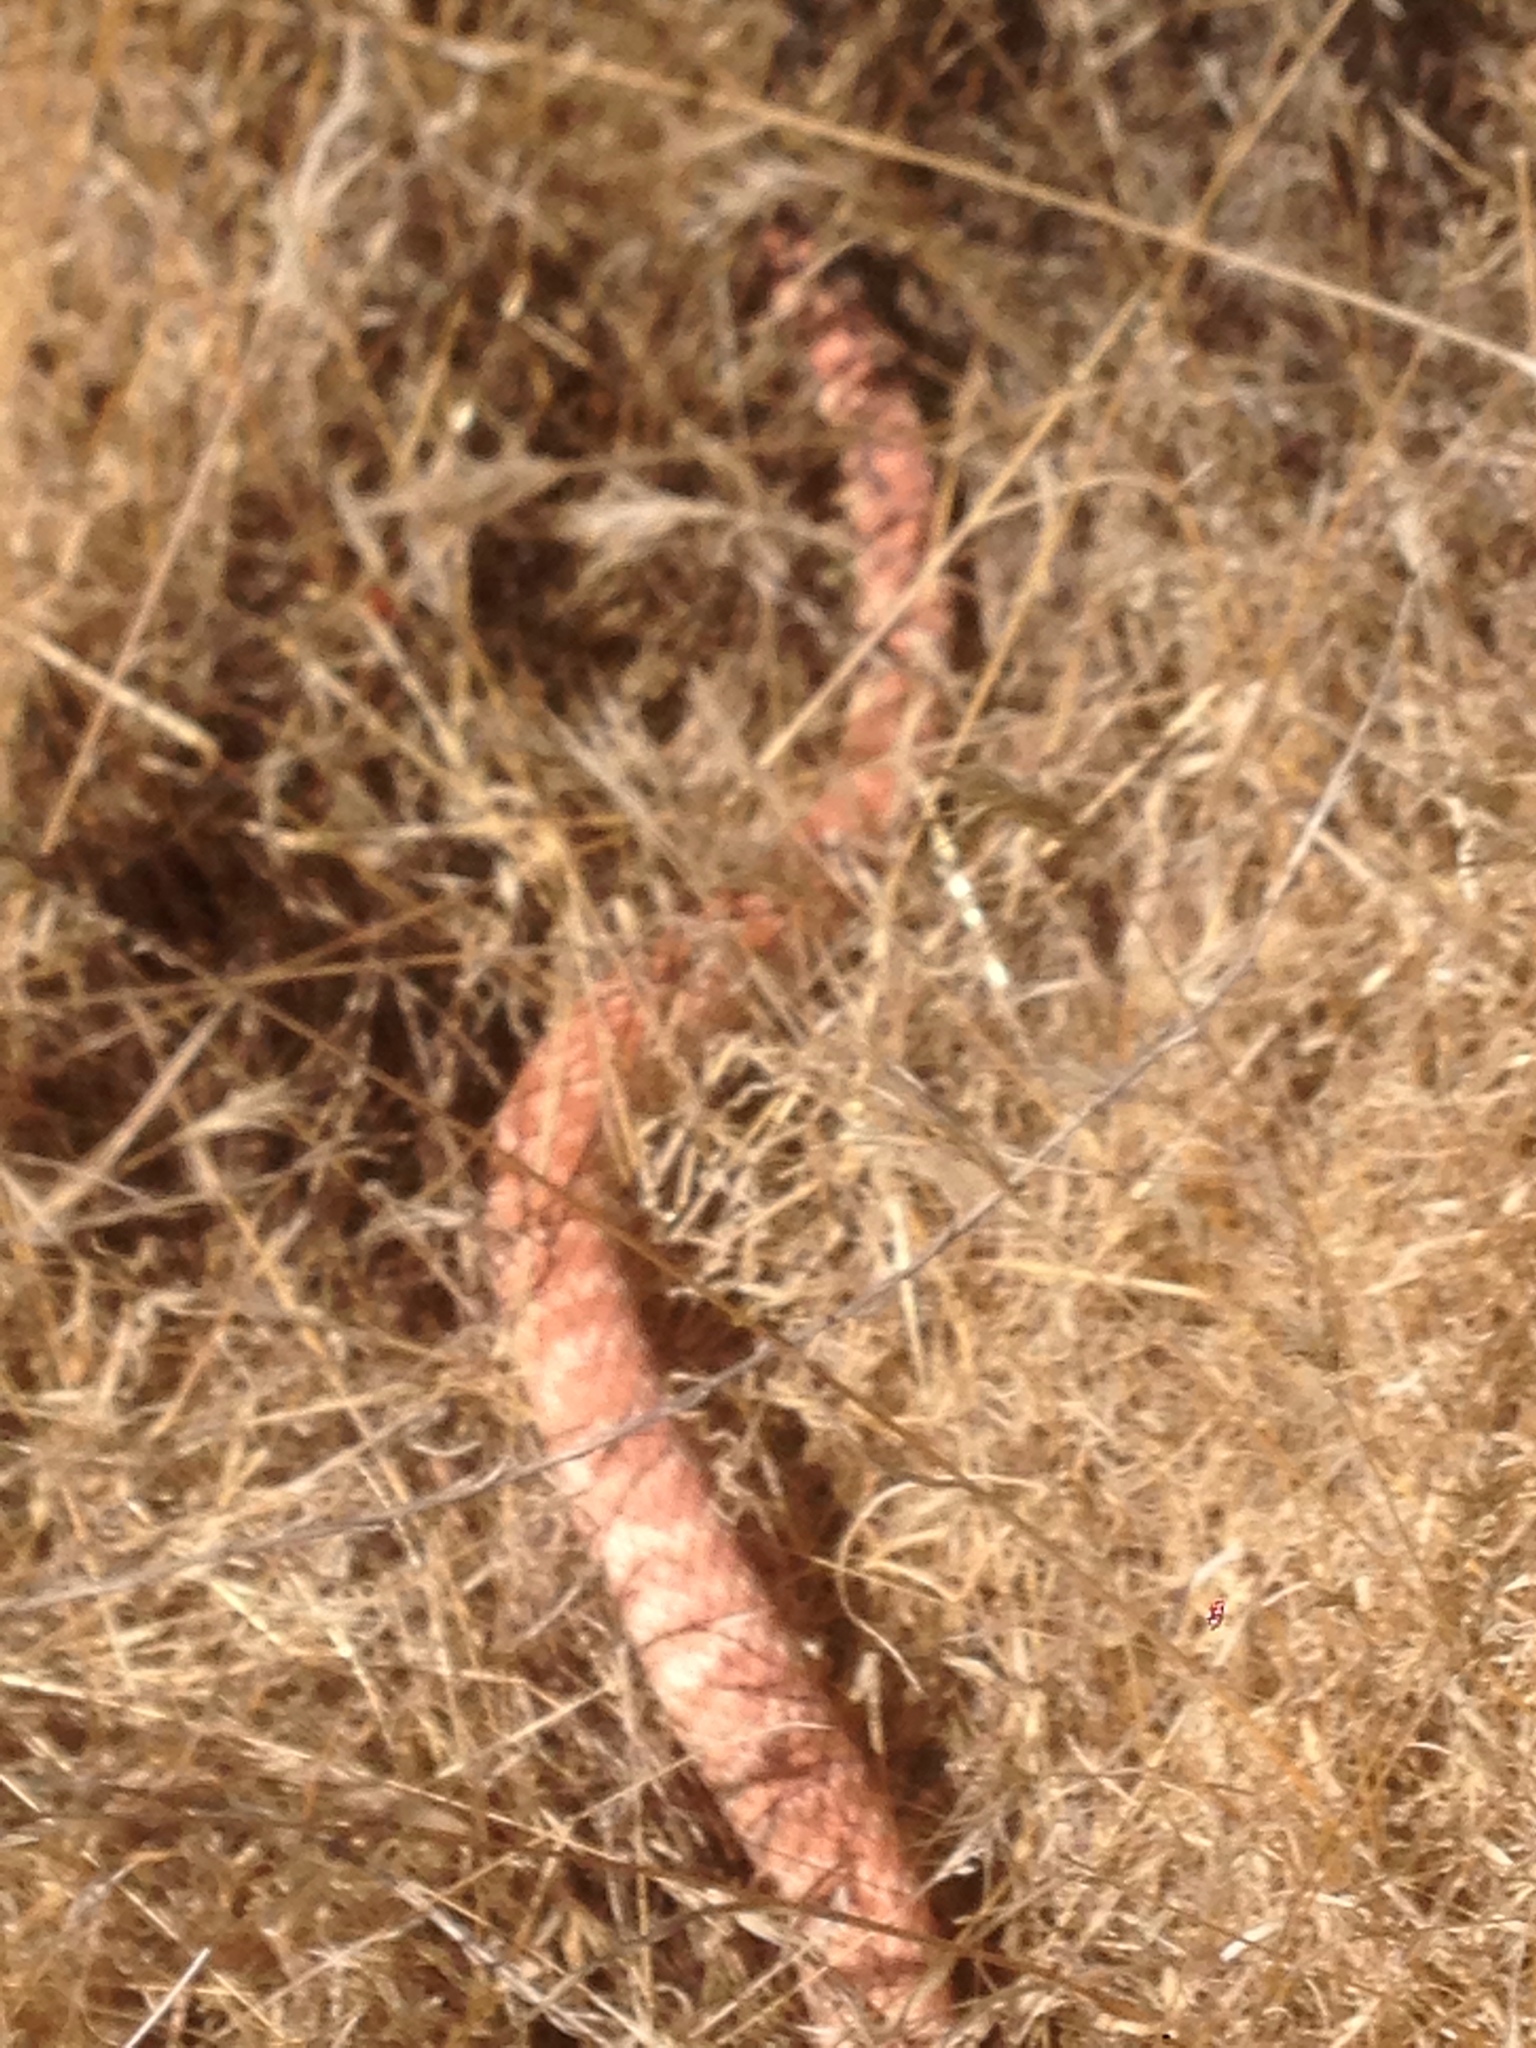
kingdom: Animalia
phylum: Chordata
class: Squamata
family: Colubridae
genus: Masticophis
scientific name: Masticophis flagellum
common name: Coachwhip
